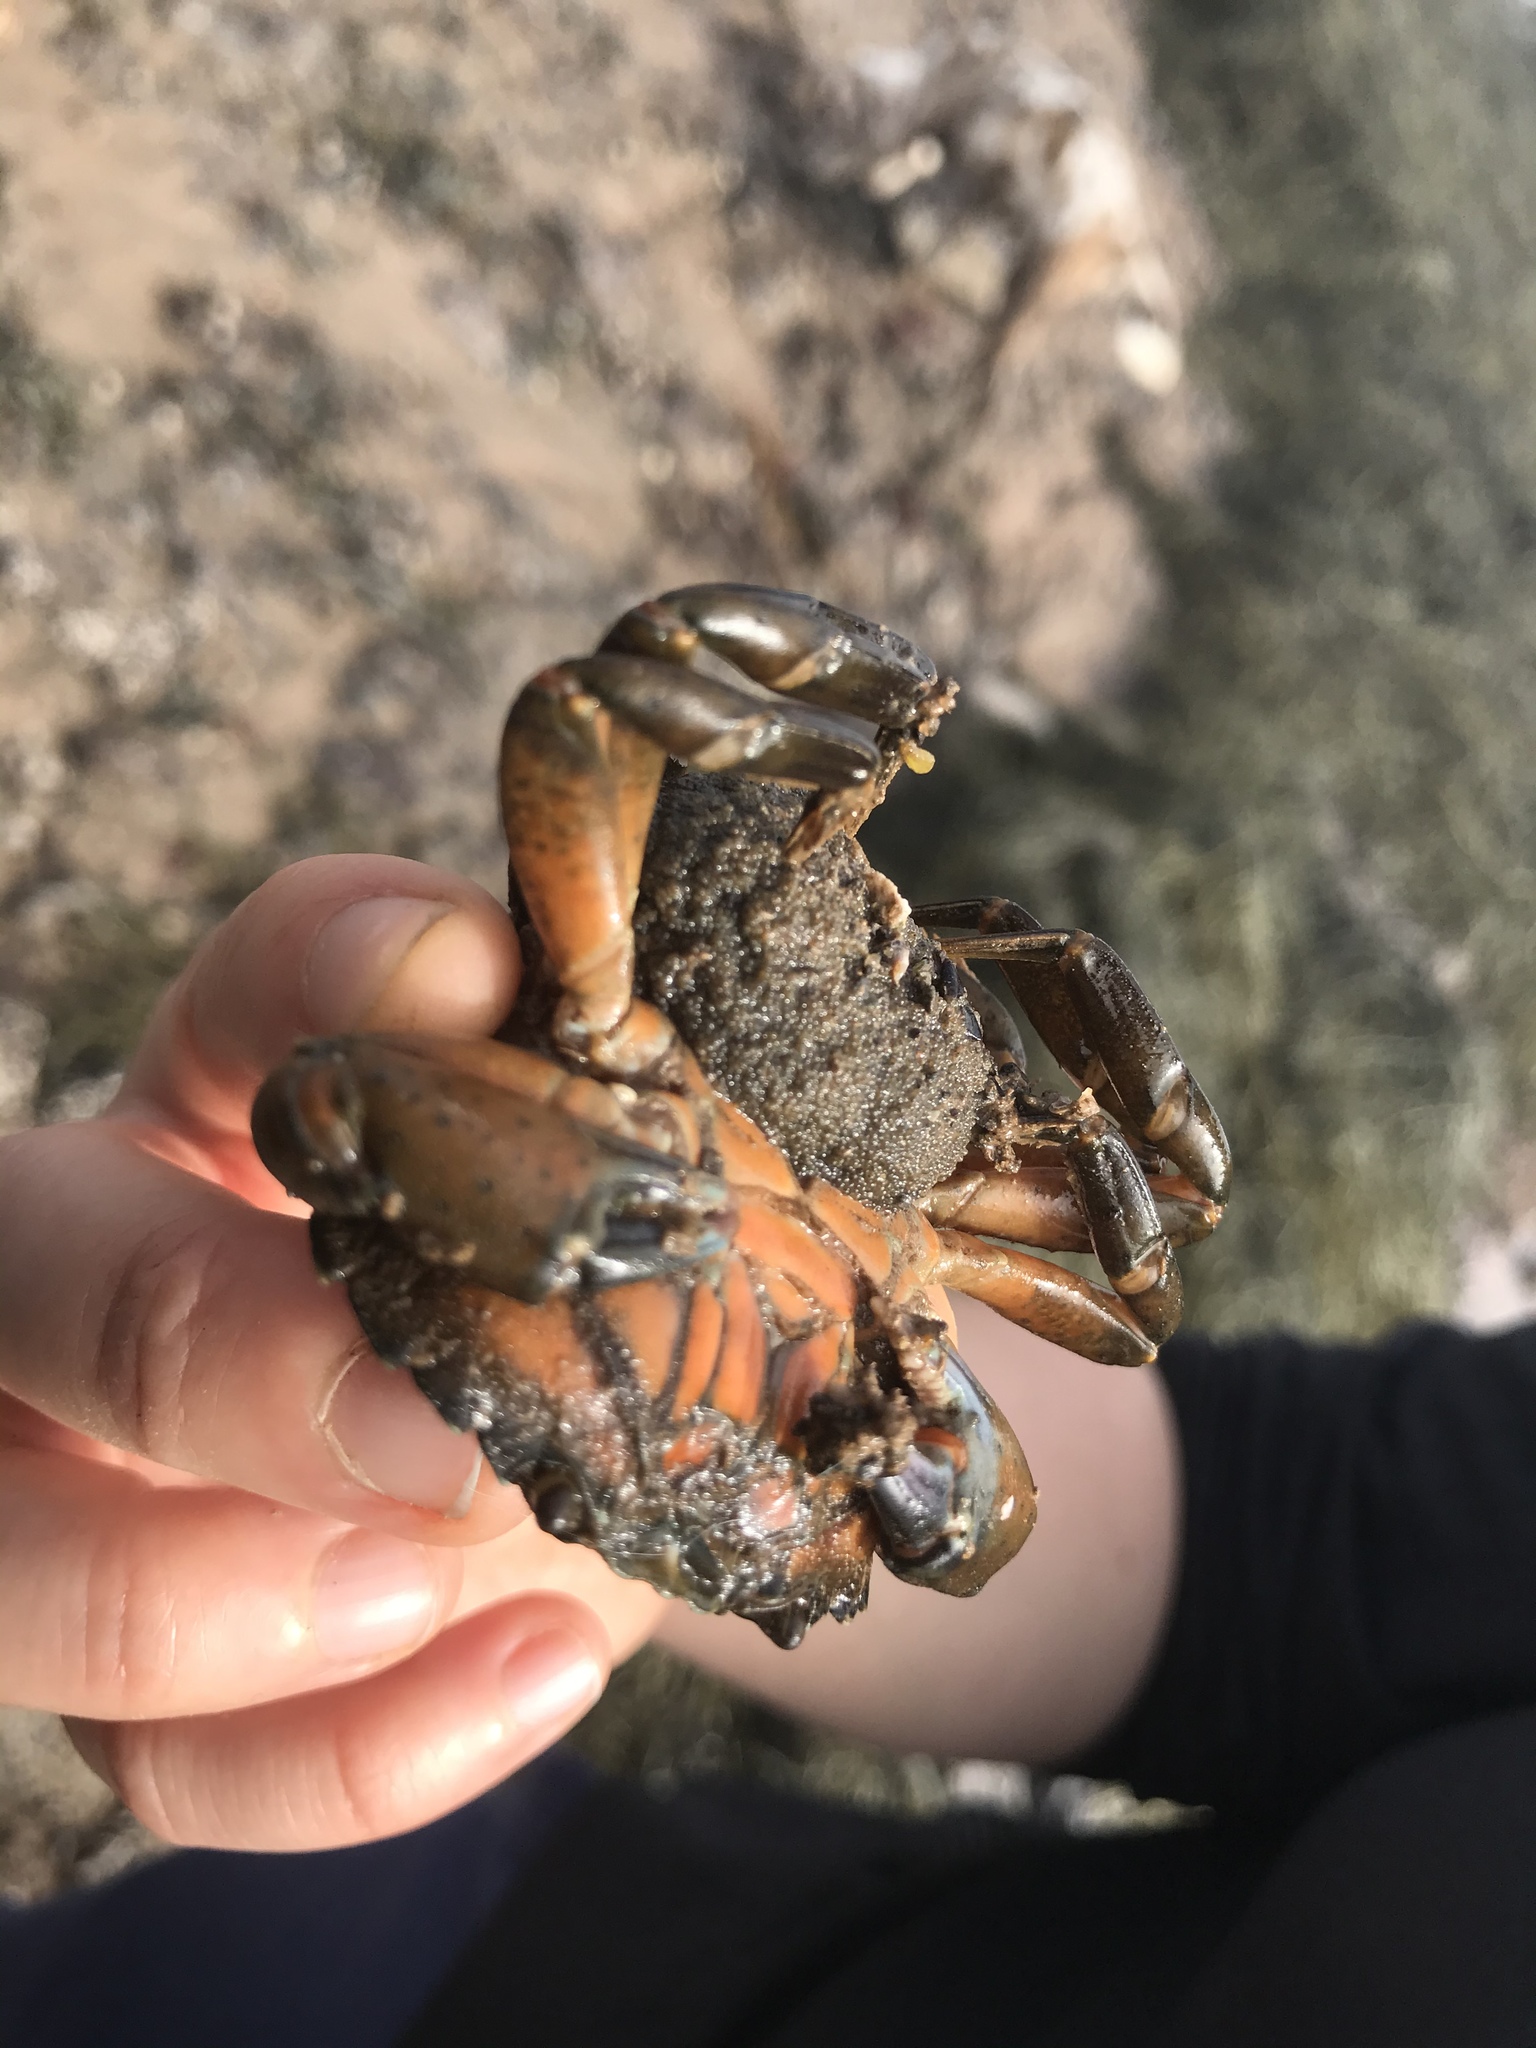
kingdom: Animalia
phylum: Arthropoda
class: Malacostraca
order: Decapoda
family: Carcinidae
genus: Carcinus
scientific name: Carcinus maenas
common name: European green crab
